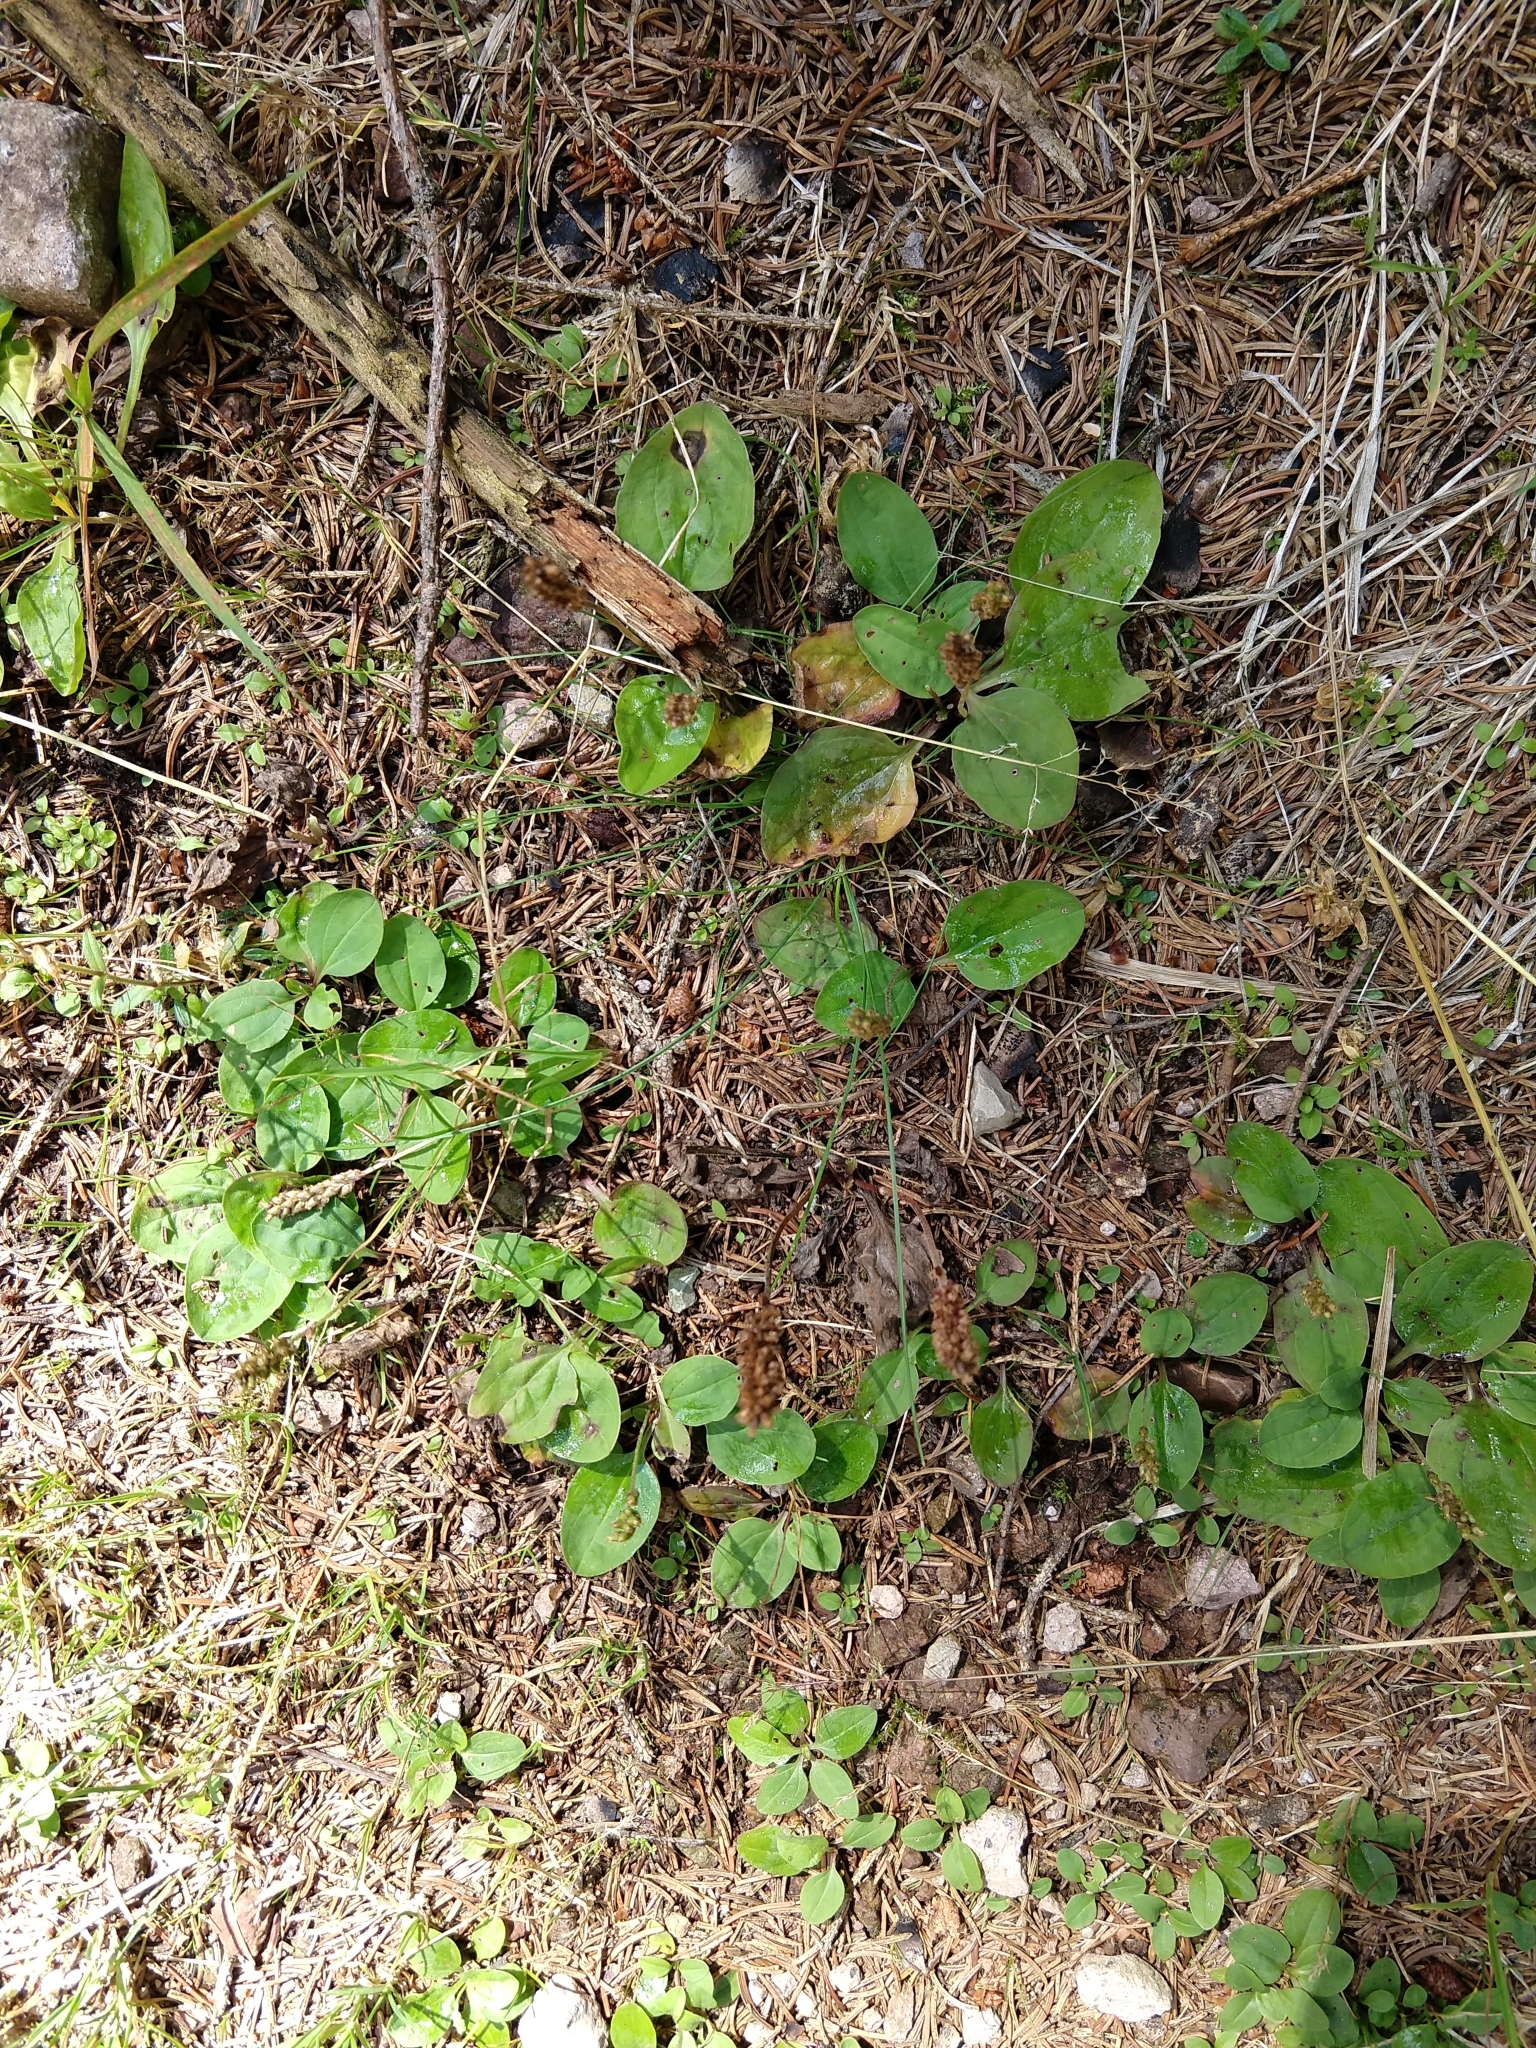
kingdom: Plantae
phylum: Tracheophyta
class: Magnoliopsida
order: Lamiales
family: Plantaginaceae
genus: Plantago
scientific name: Plantago major
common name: Common plantain
